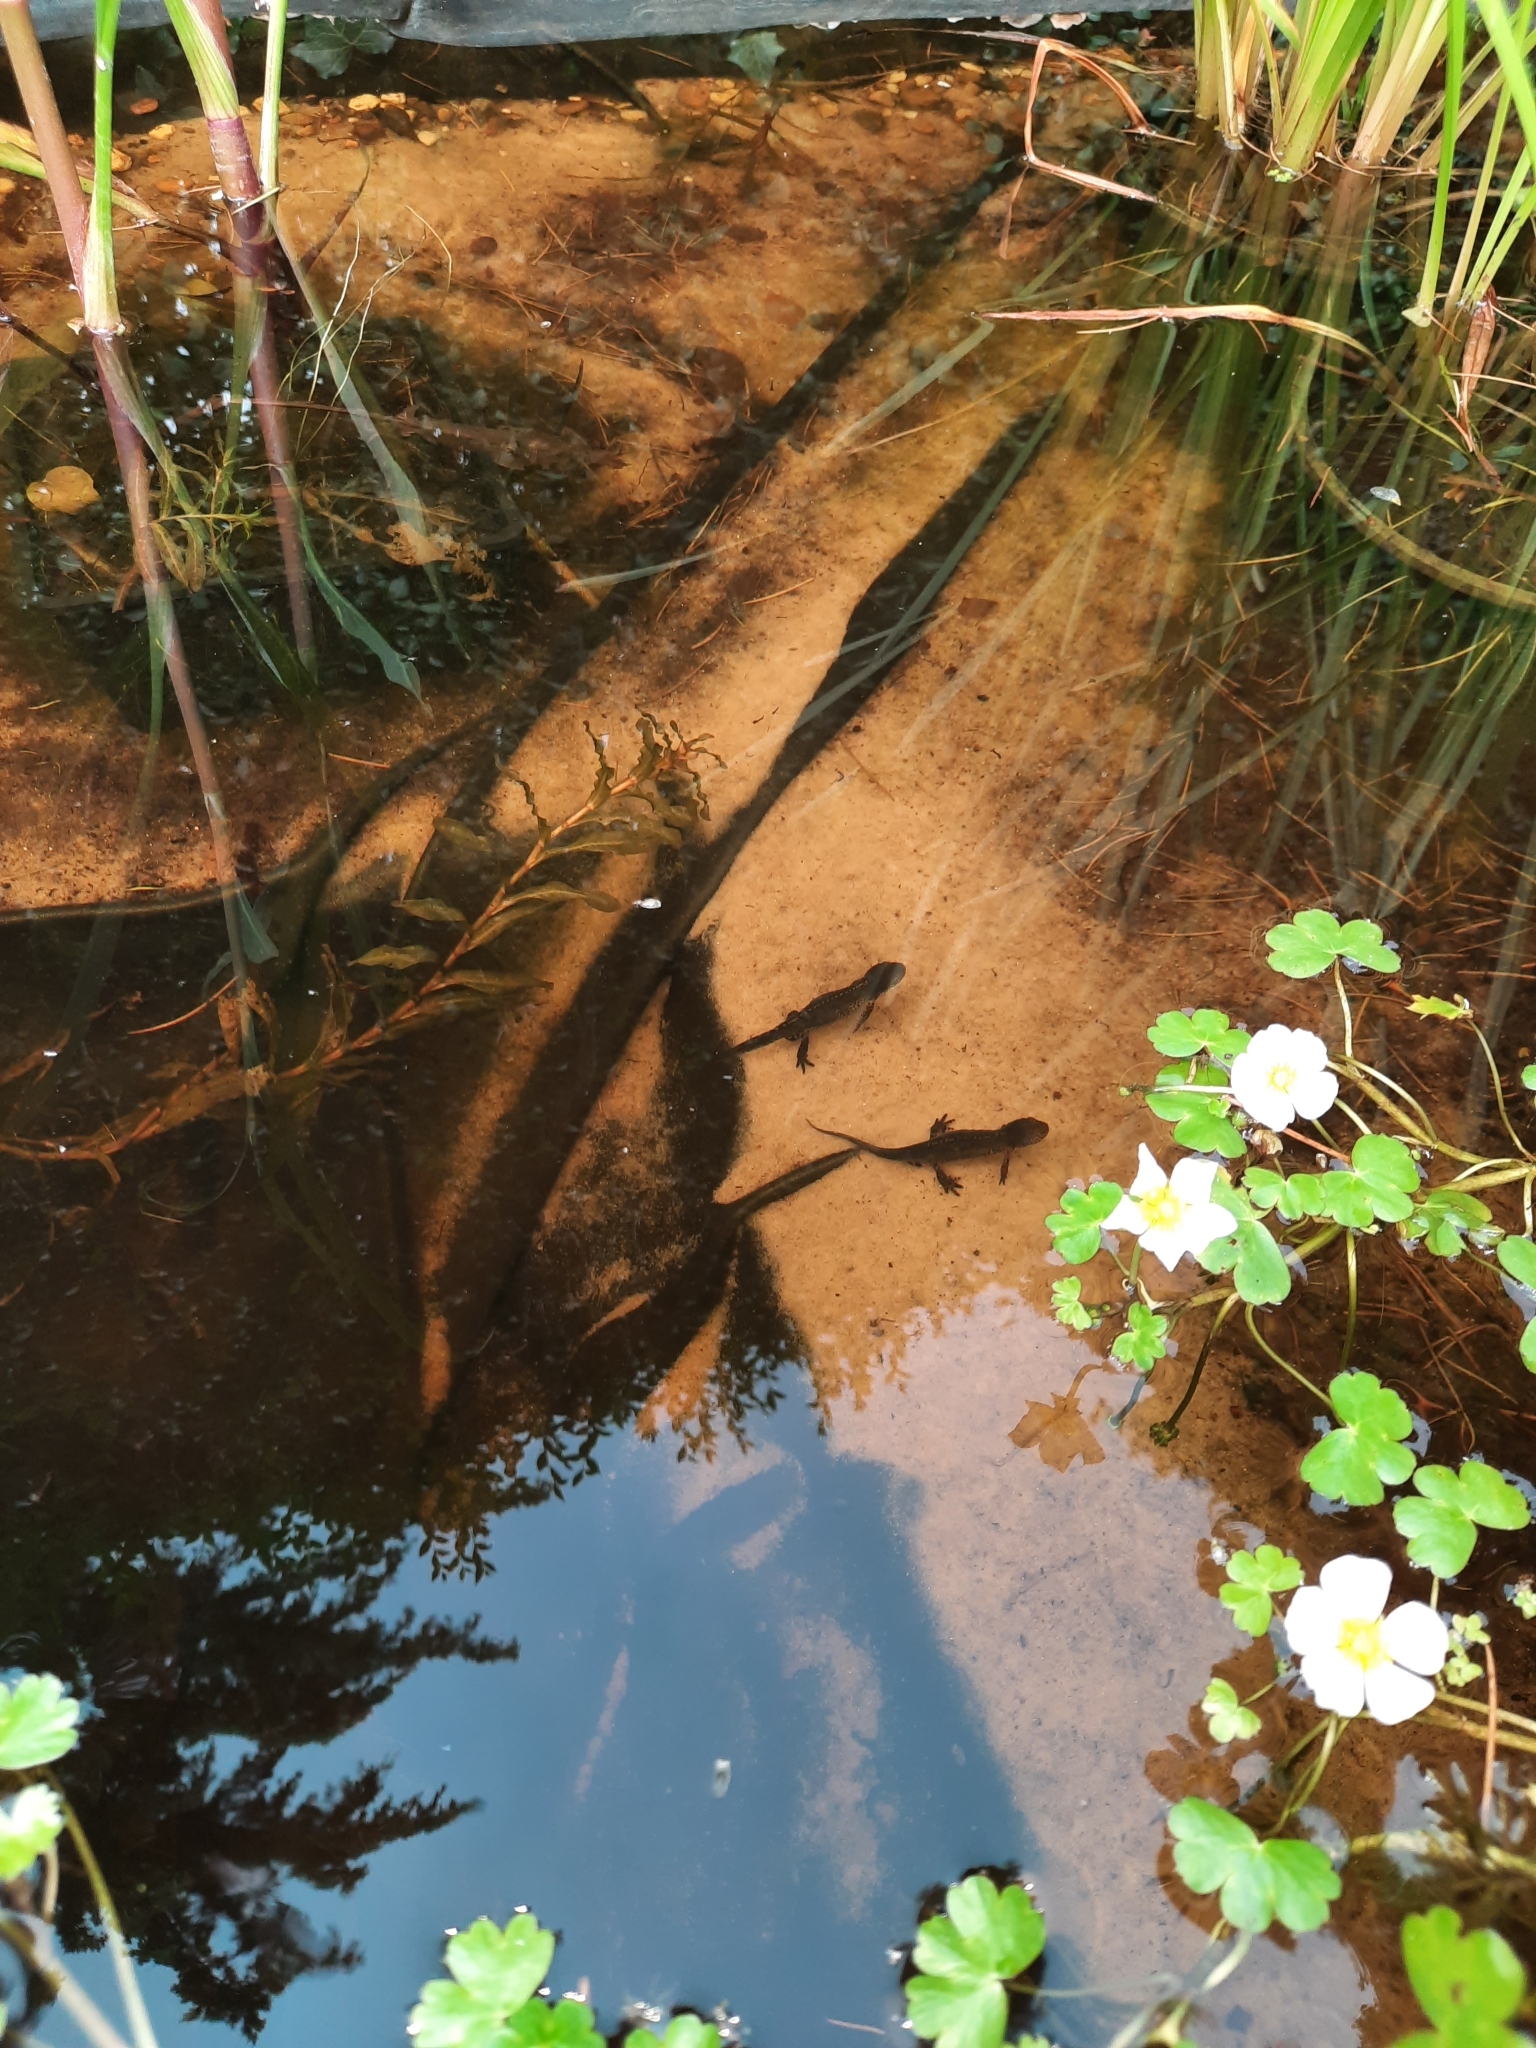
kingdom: Animalia
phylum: Chordata
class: Amphibia
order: Caudata
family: Salamandridae
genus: Ichthyosaura
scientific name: Ichthyosaura alpestris
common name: Alpine newt
